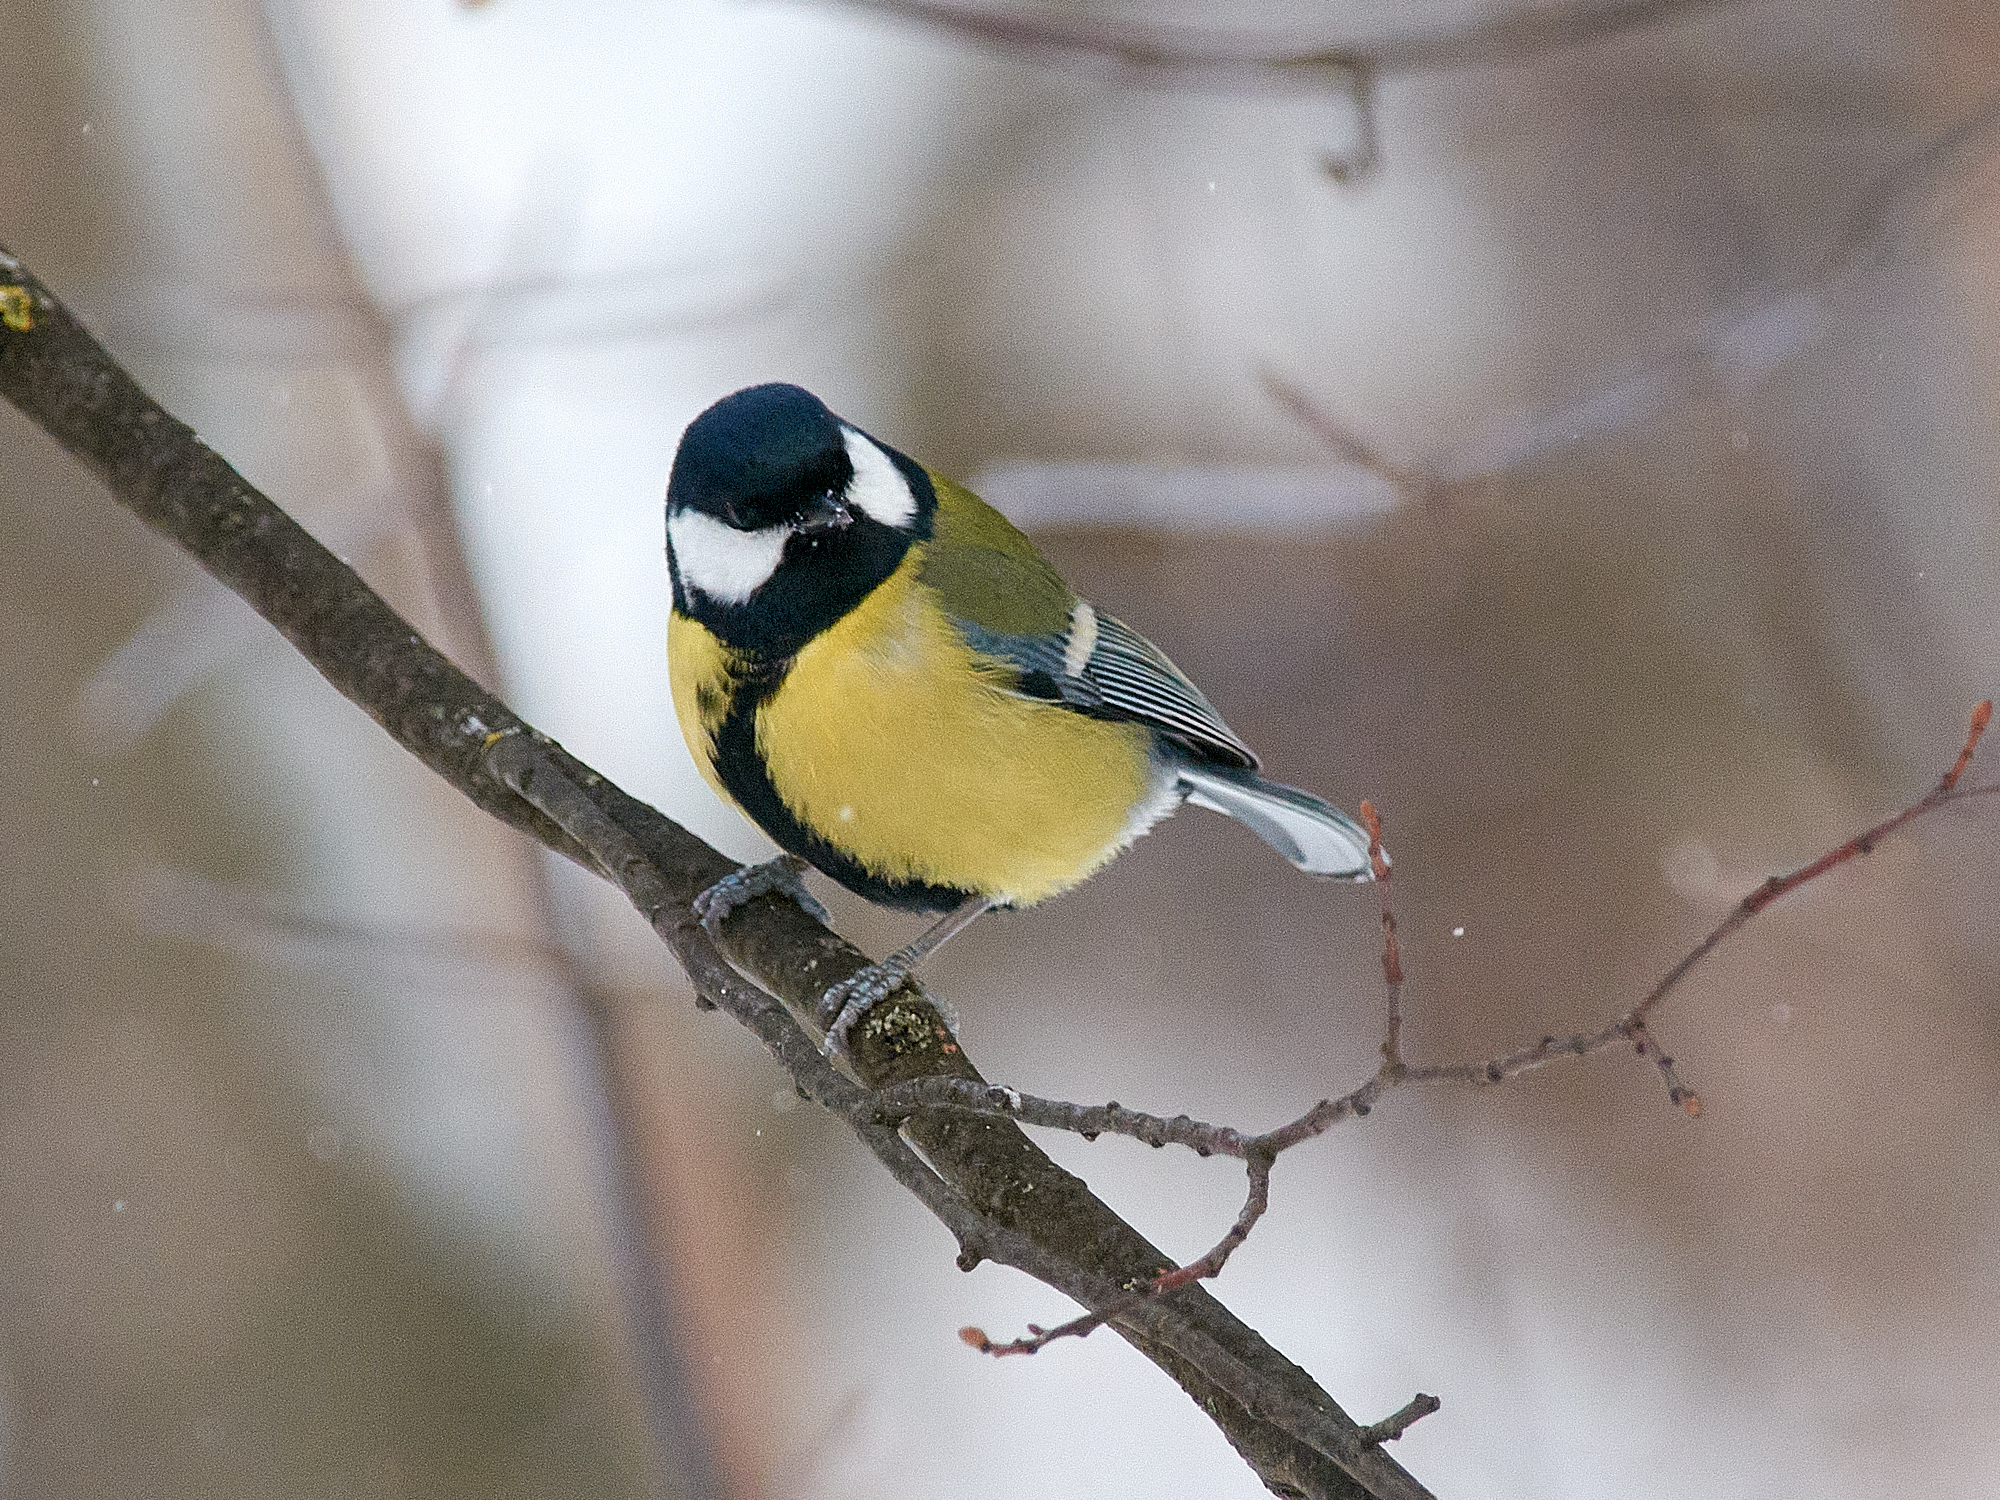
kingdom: Animalia
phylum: Chordata
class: Aves
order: Passeriformes
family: Paridae
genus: Parus
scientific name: Parus major
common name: Great tit
